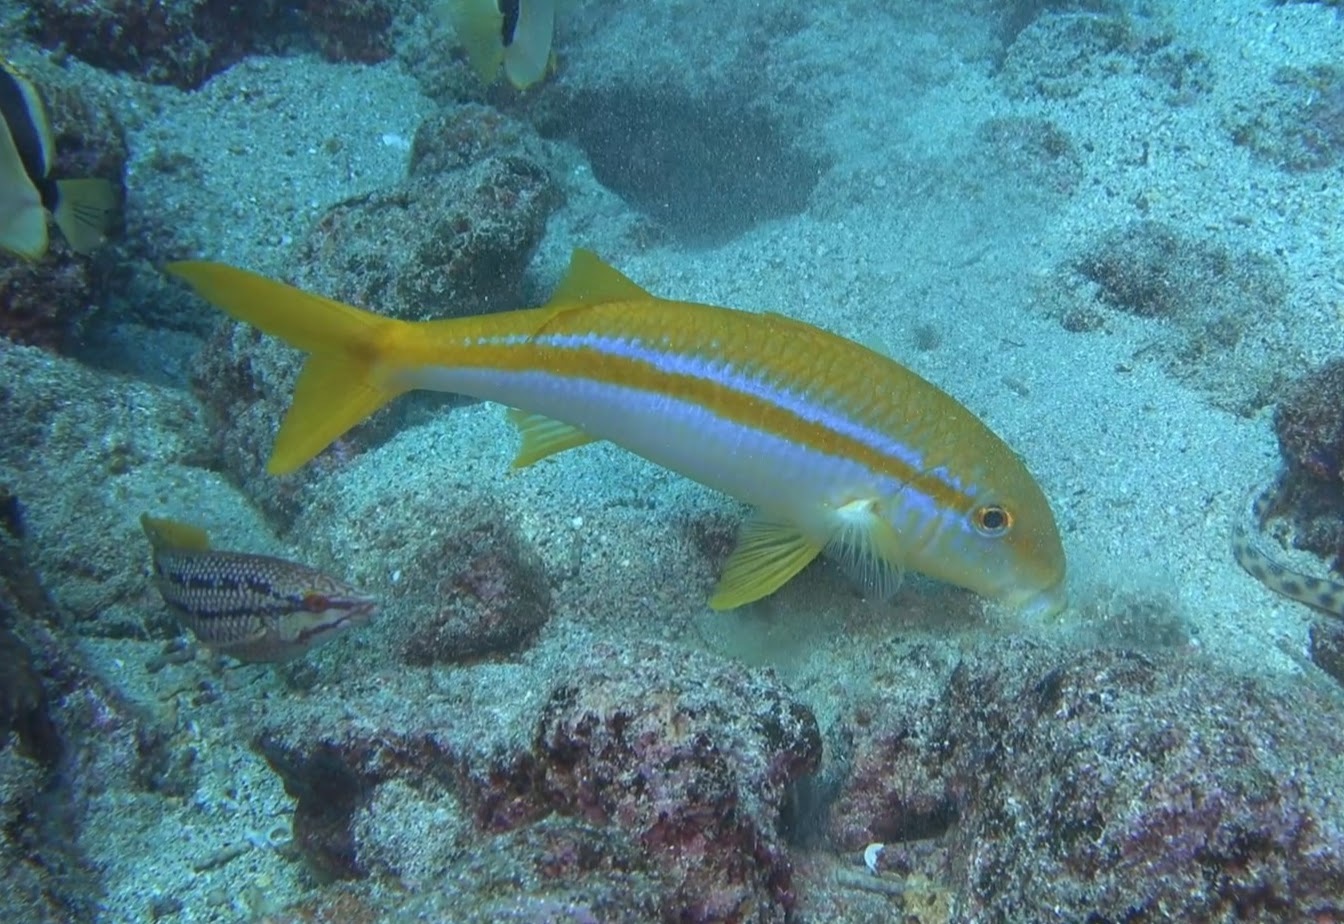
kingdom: Animalia
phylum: Chordata
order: Perciformes
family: Mullidae
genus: Mulloidichthys
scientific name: Mulloidichthys dentatus
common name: Mexican goatfish
